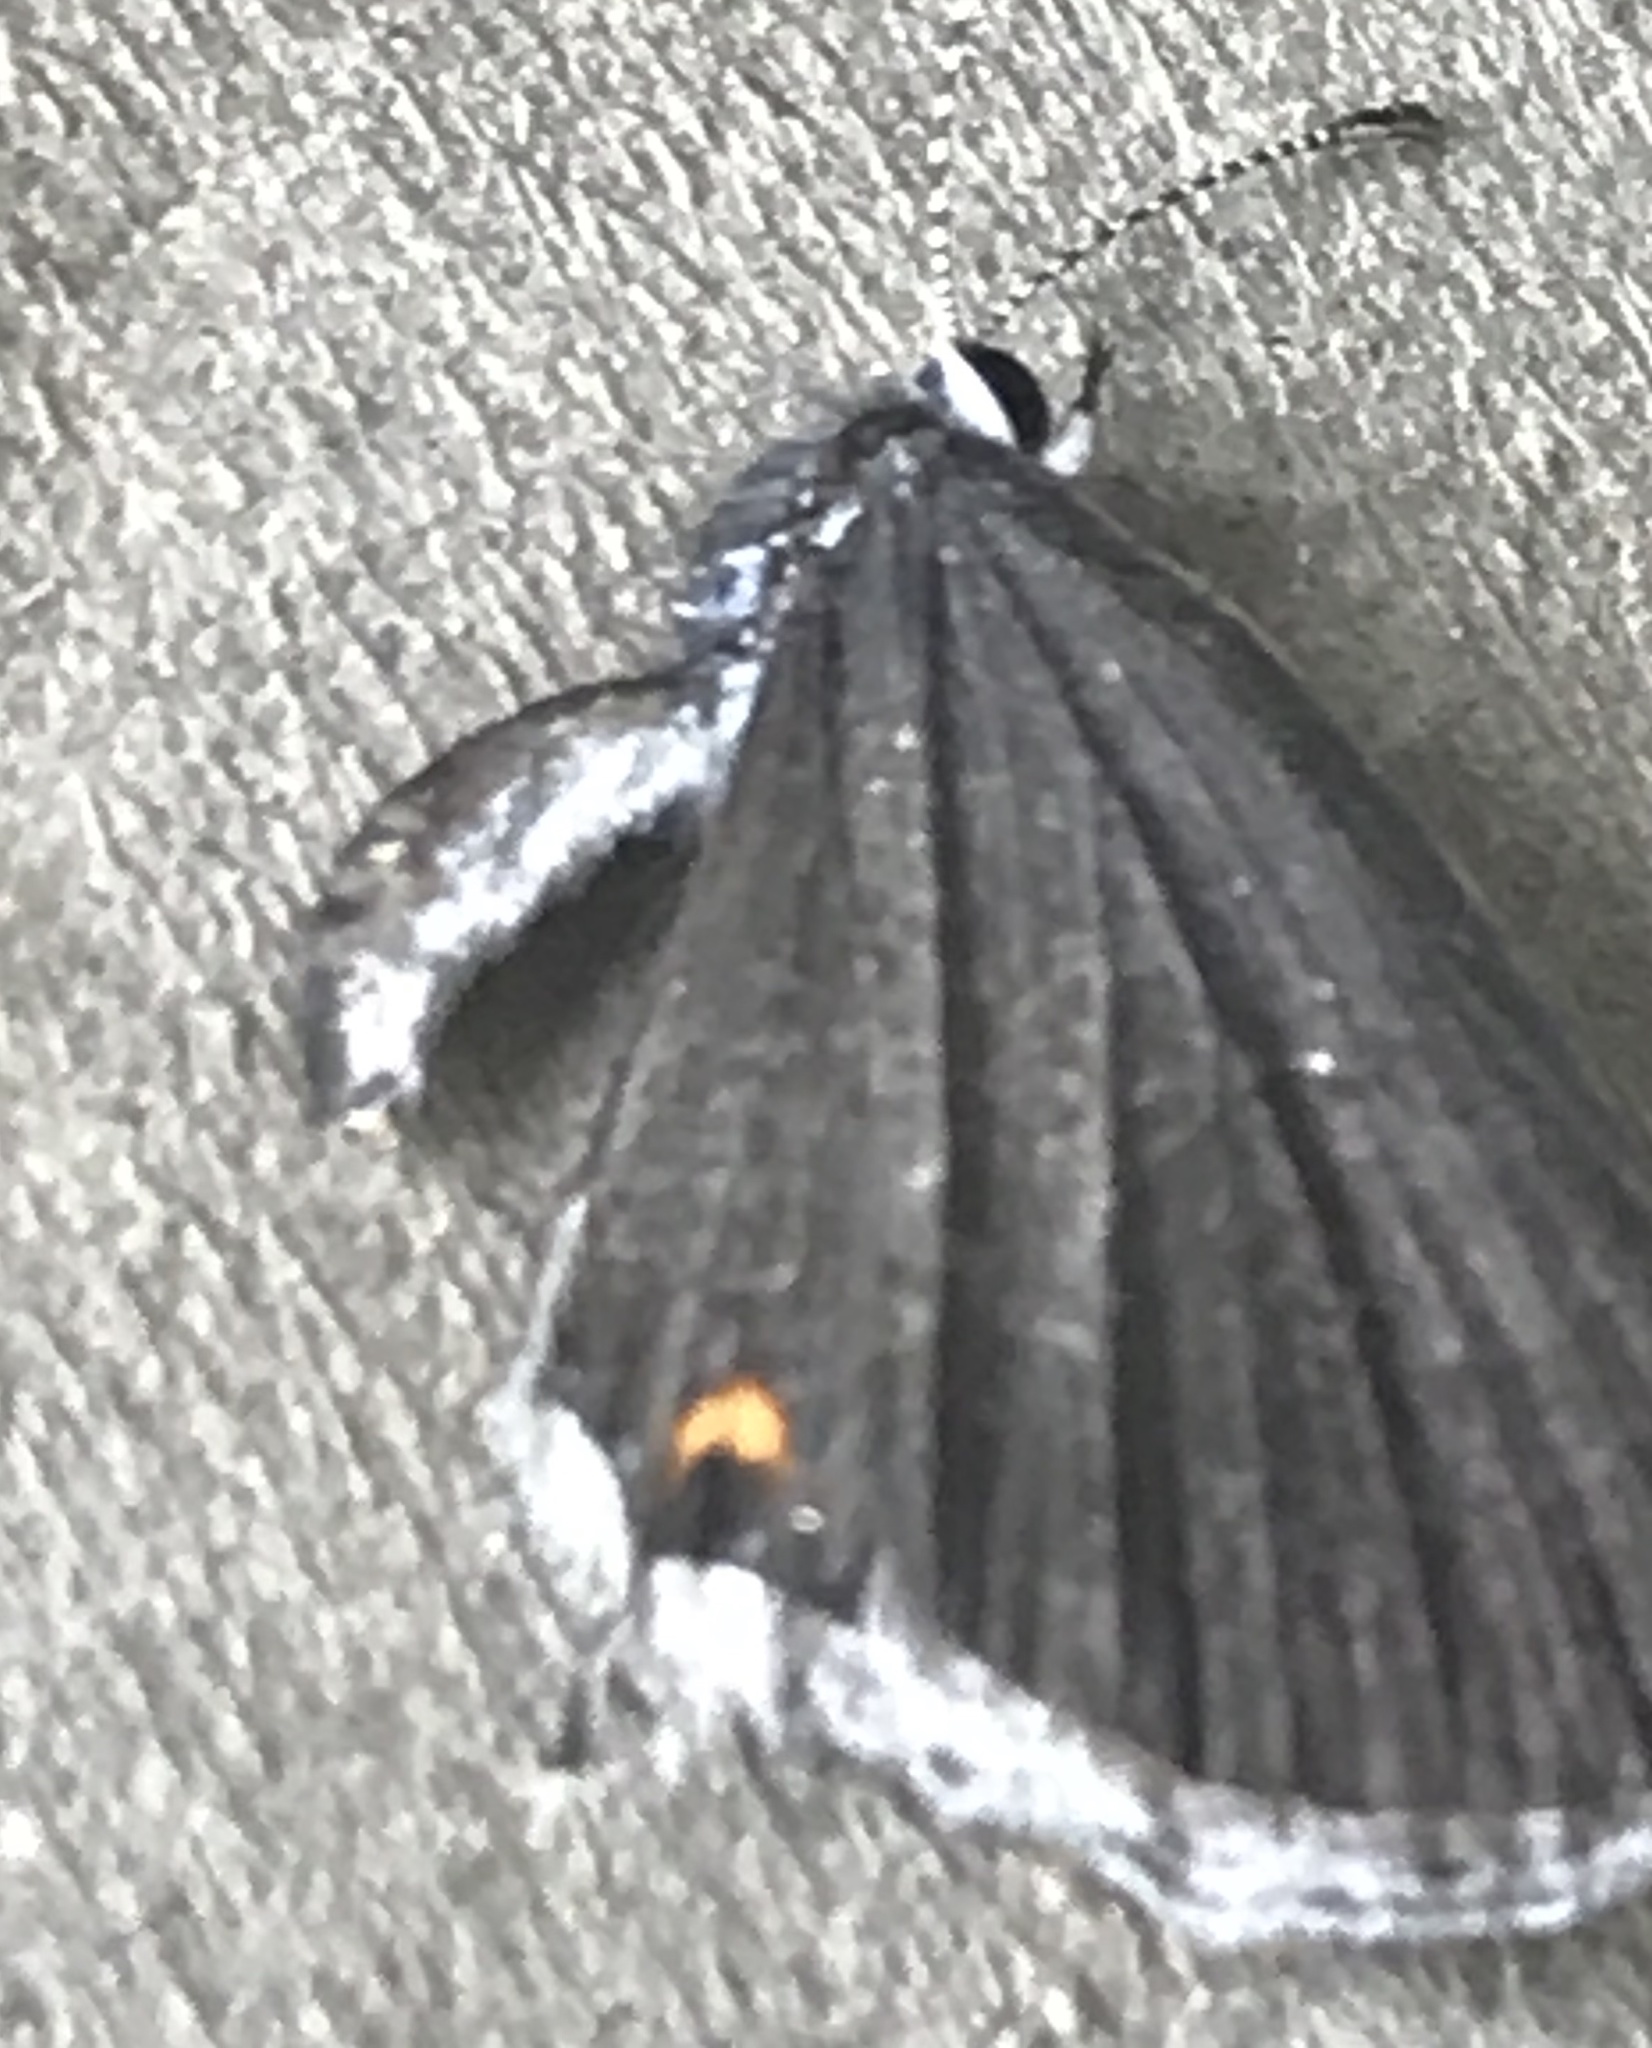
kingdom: Animalia
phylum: Arthropoda
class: Insecta
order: Lepidoptera
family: Lycaenidae
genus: Elkalyce
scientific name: Elkalyce comyntas
